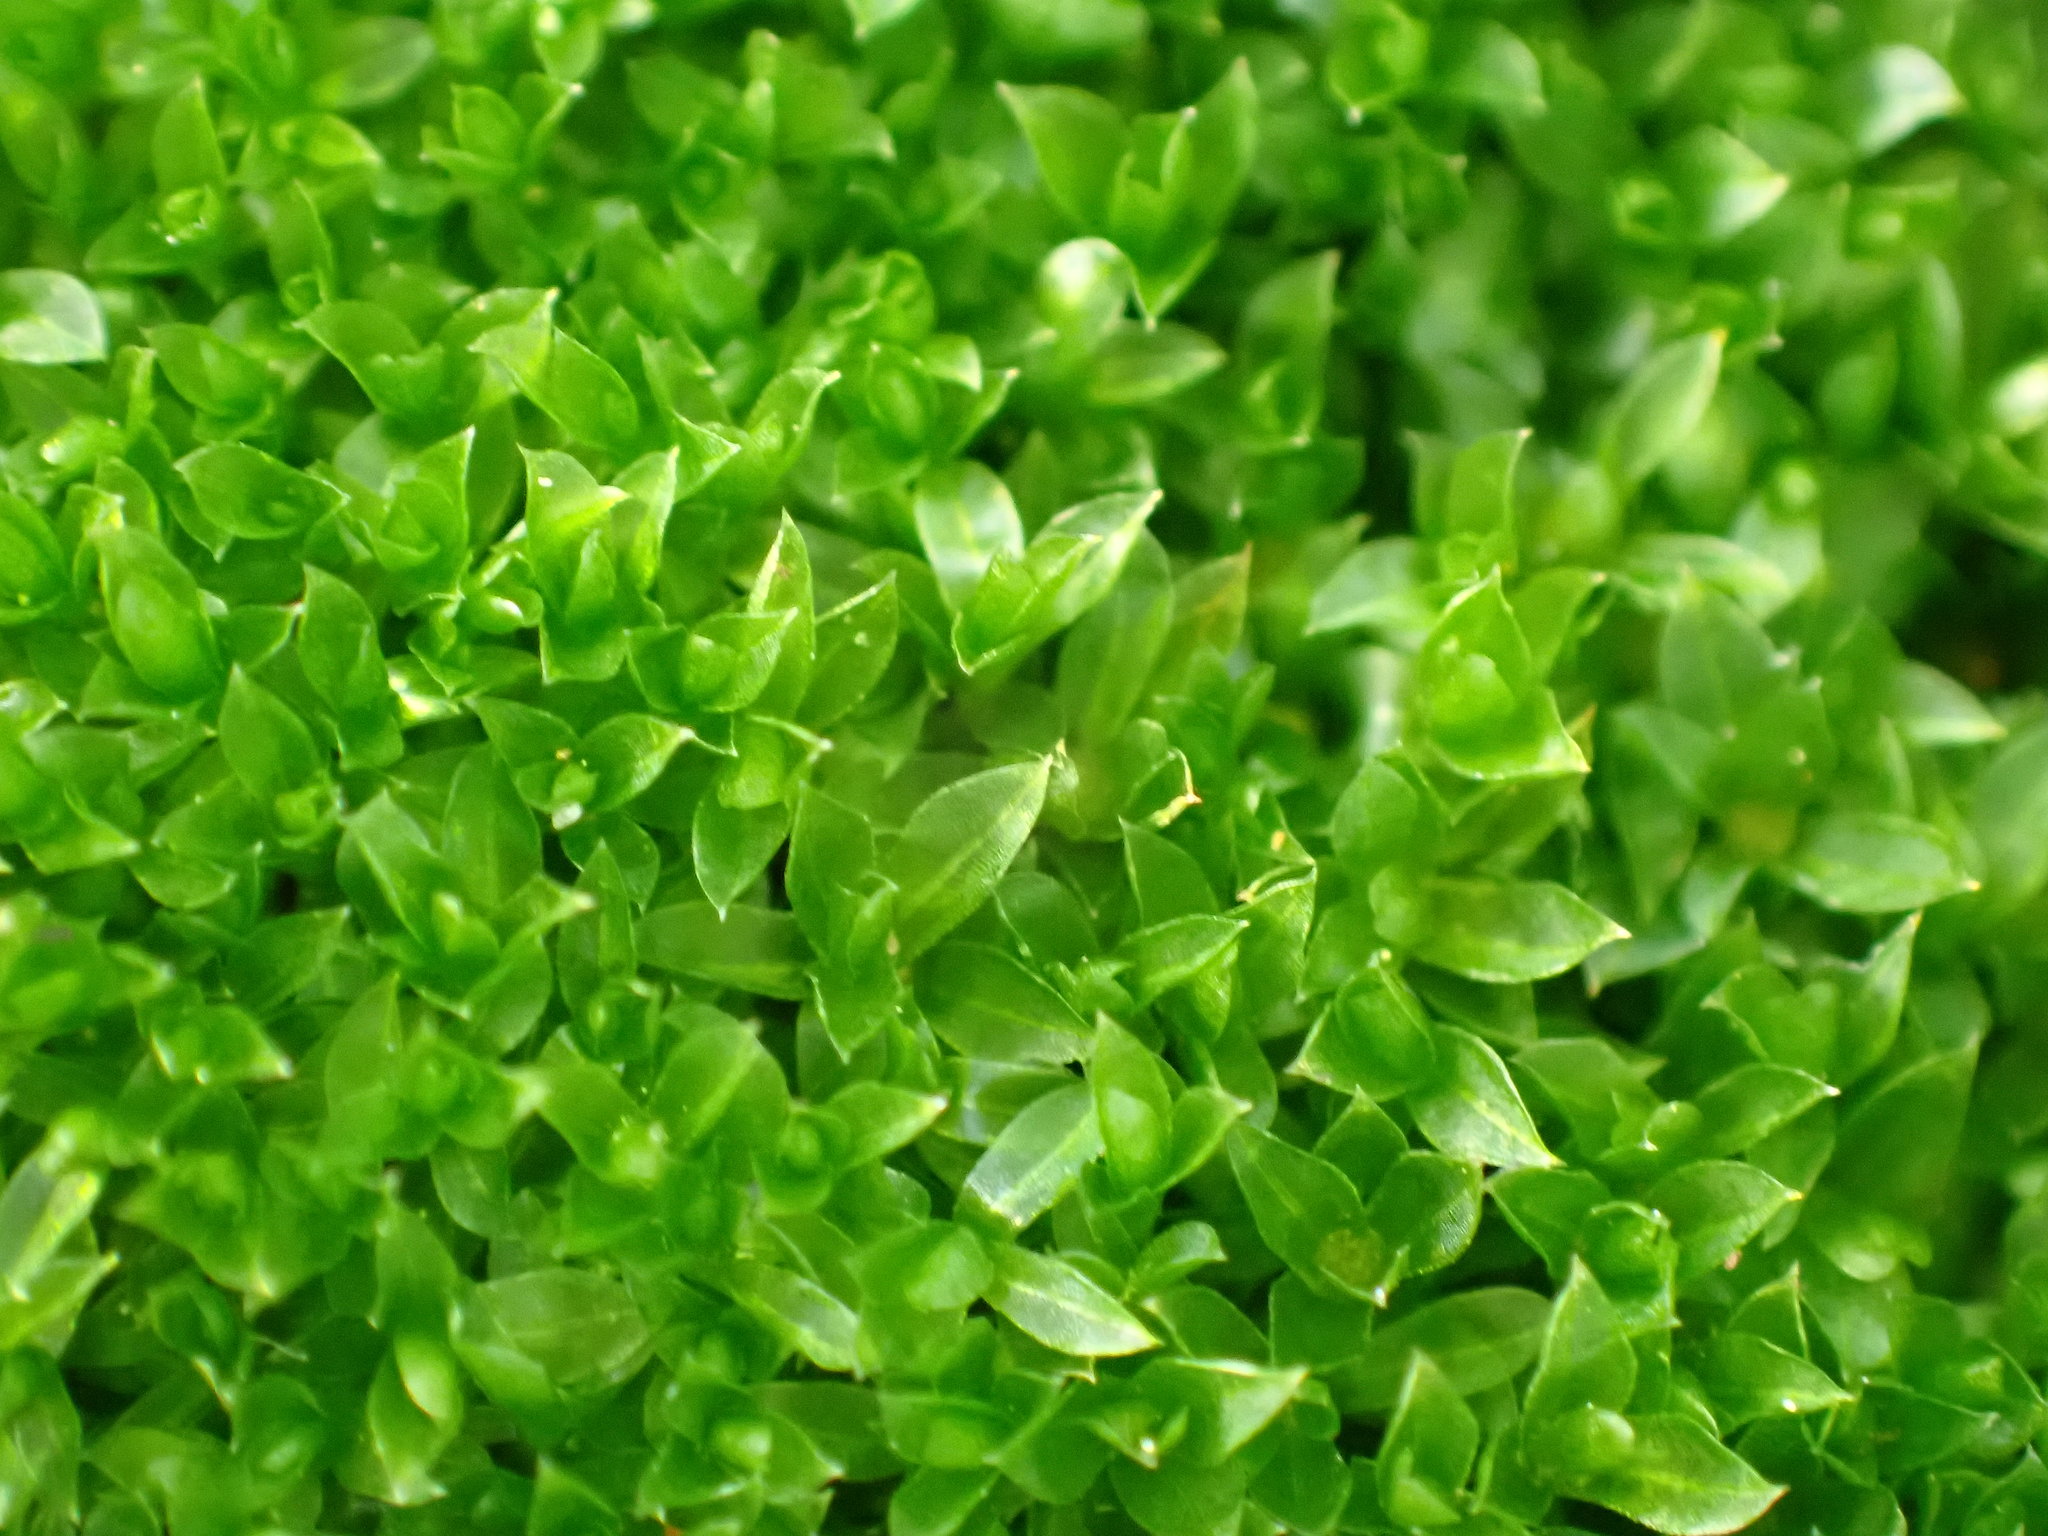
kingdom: Plantae
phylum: Bryophyta
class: Bryopsida
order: Funariales
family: Funariaceae
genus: Funaria
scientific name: Funaria hygrometrica
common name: Common cord moss
